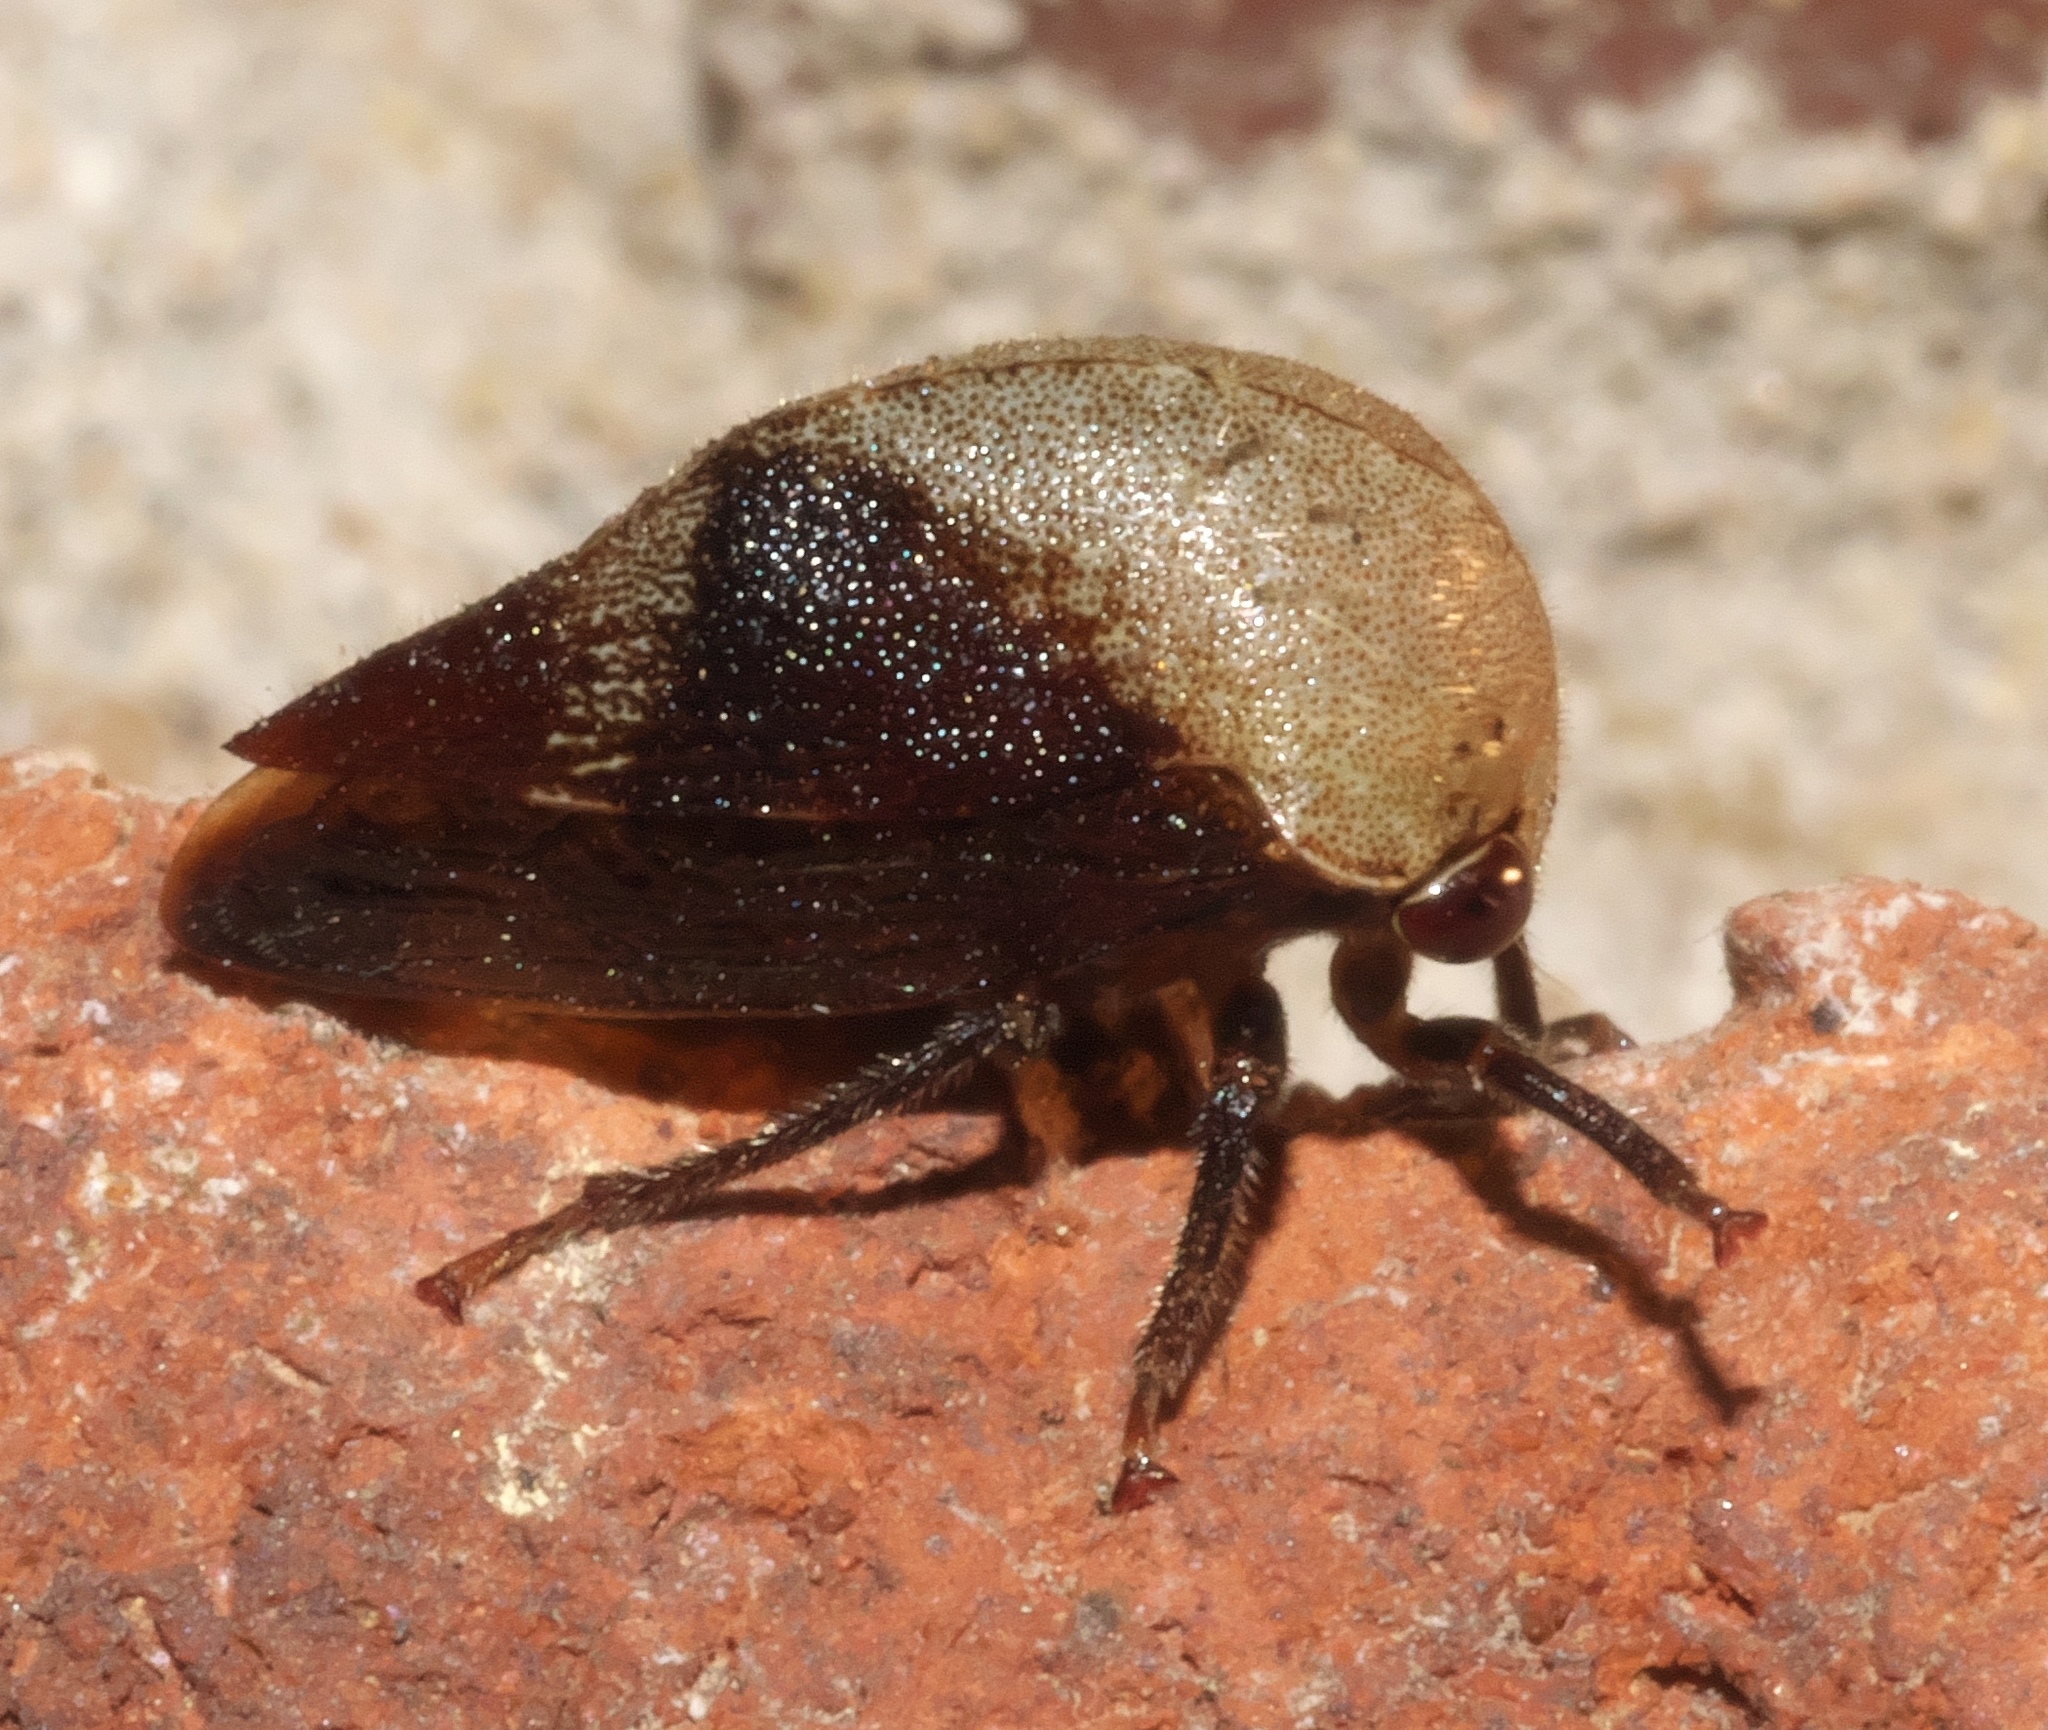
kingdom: Animalia
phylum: Arthropoda
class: Insecta
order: Hemiptera
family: Membracidae
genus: Carynota
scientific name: Carynota mera
